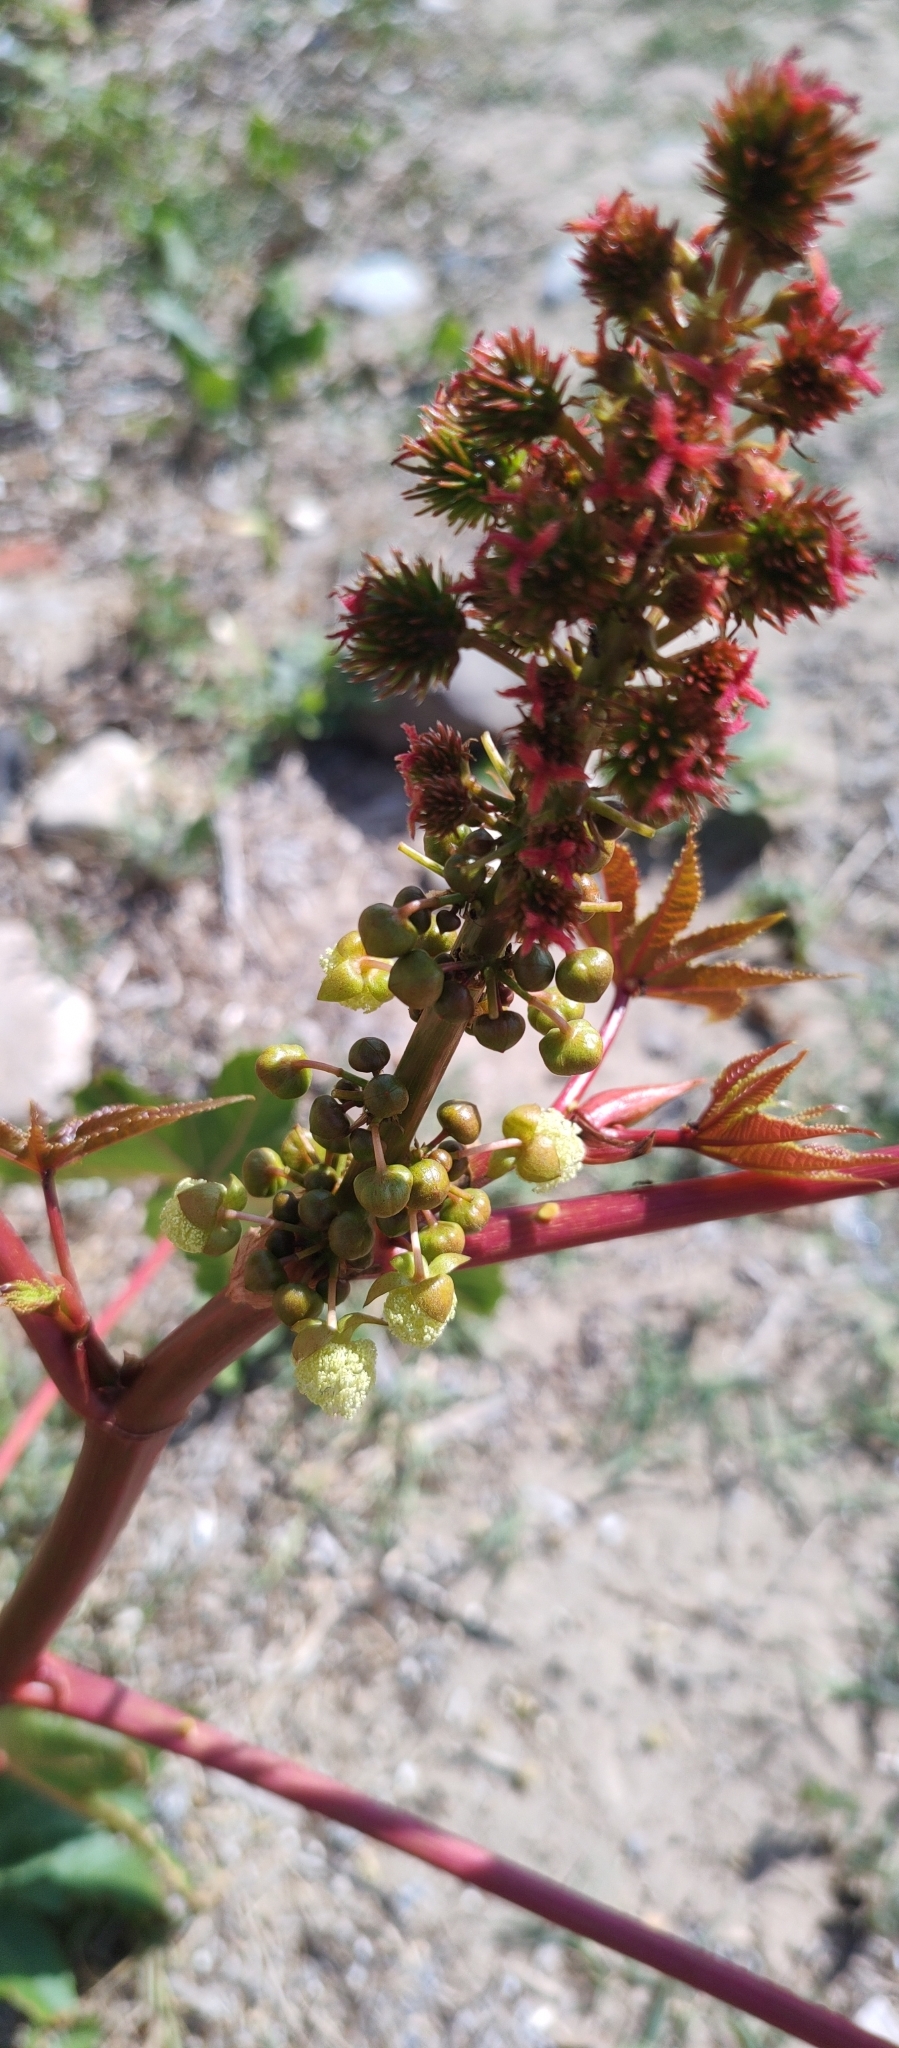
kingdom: Plantae
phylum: Tracheophyta
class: Magnoliopsida
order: Malpighiales
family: Euphorbiaceae
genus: Ricinus
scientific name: Ricinus communis
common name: Castor-oil-plant
